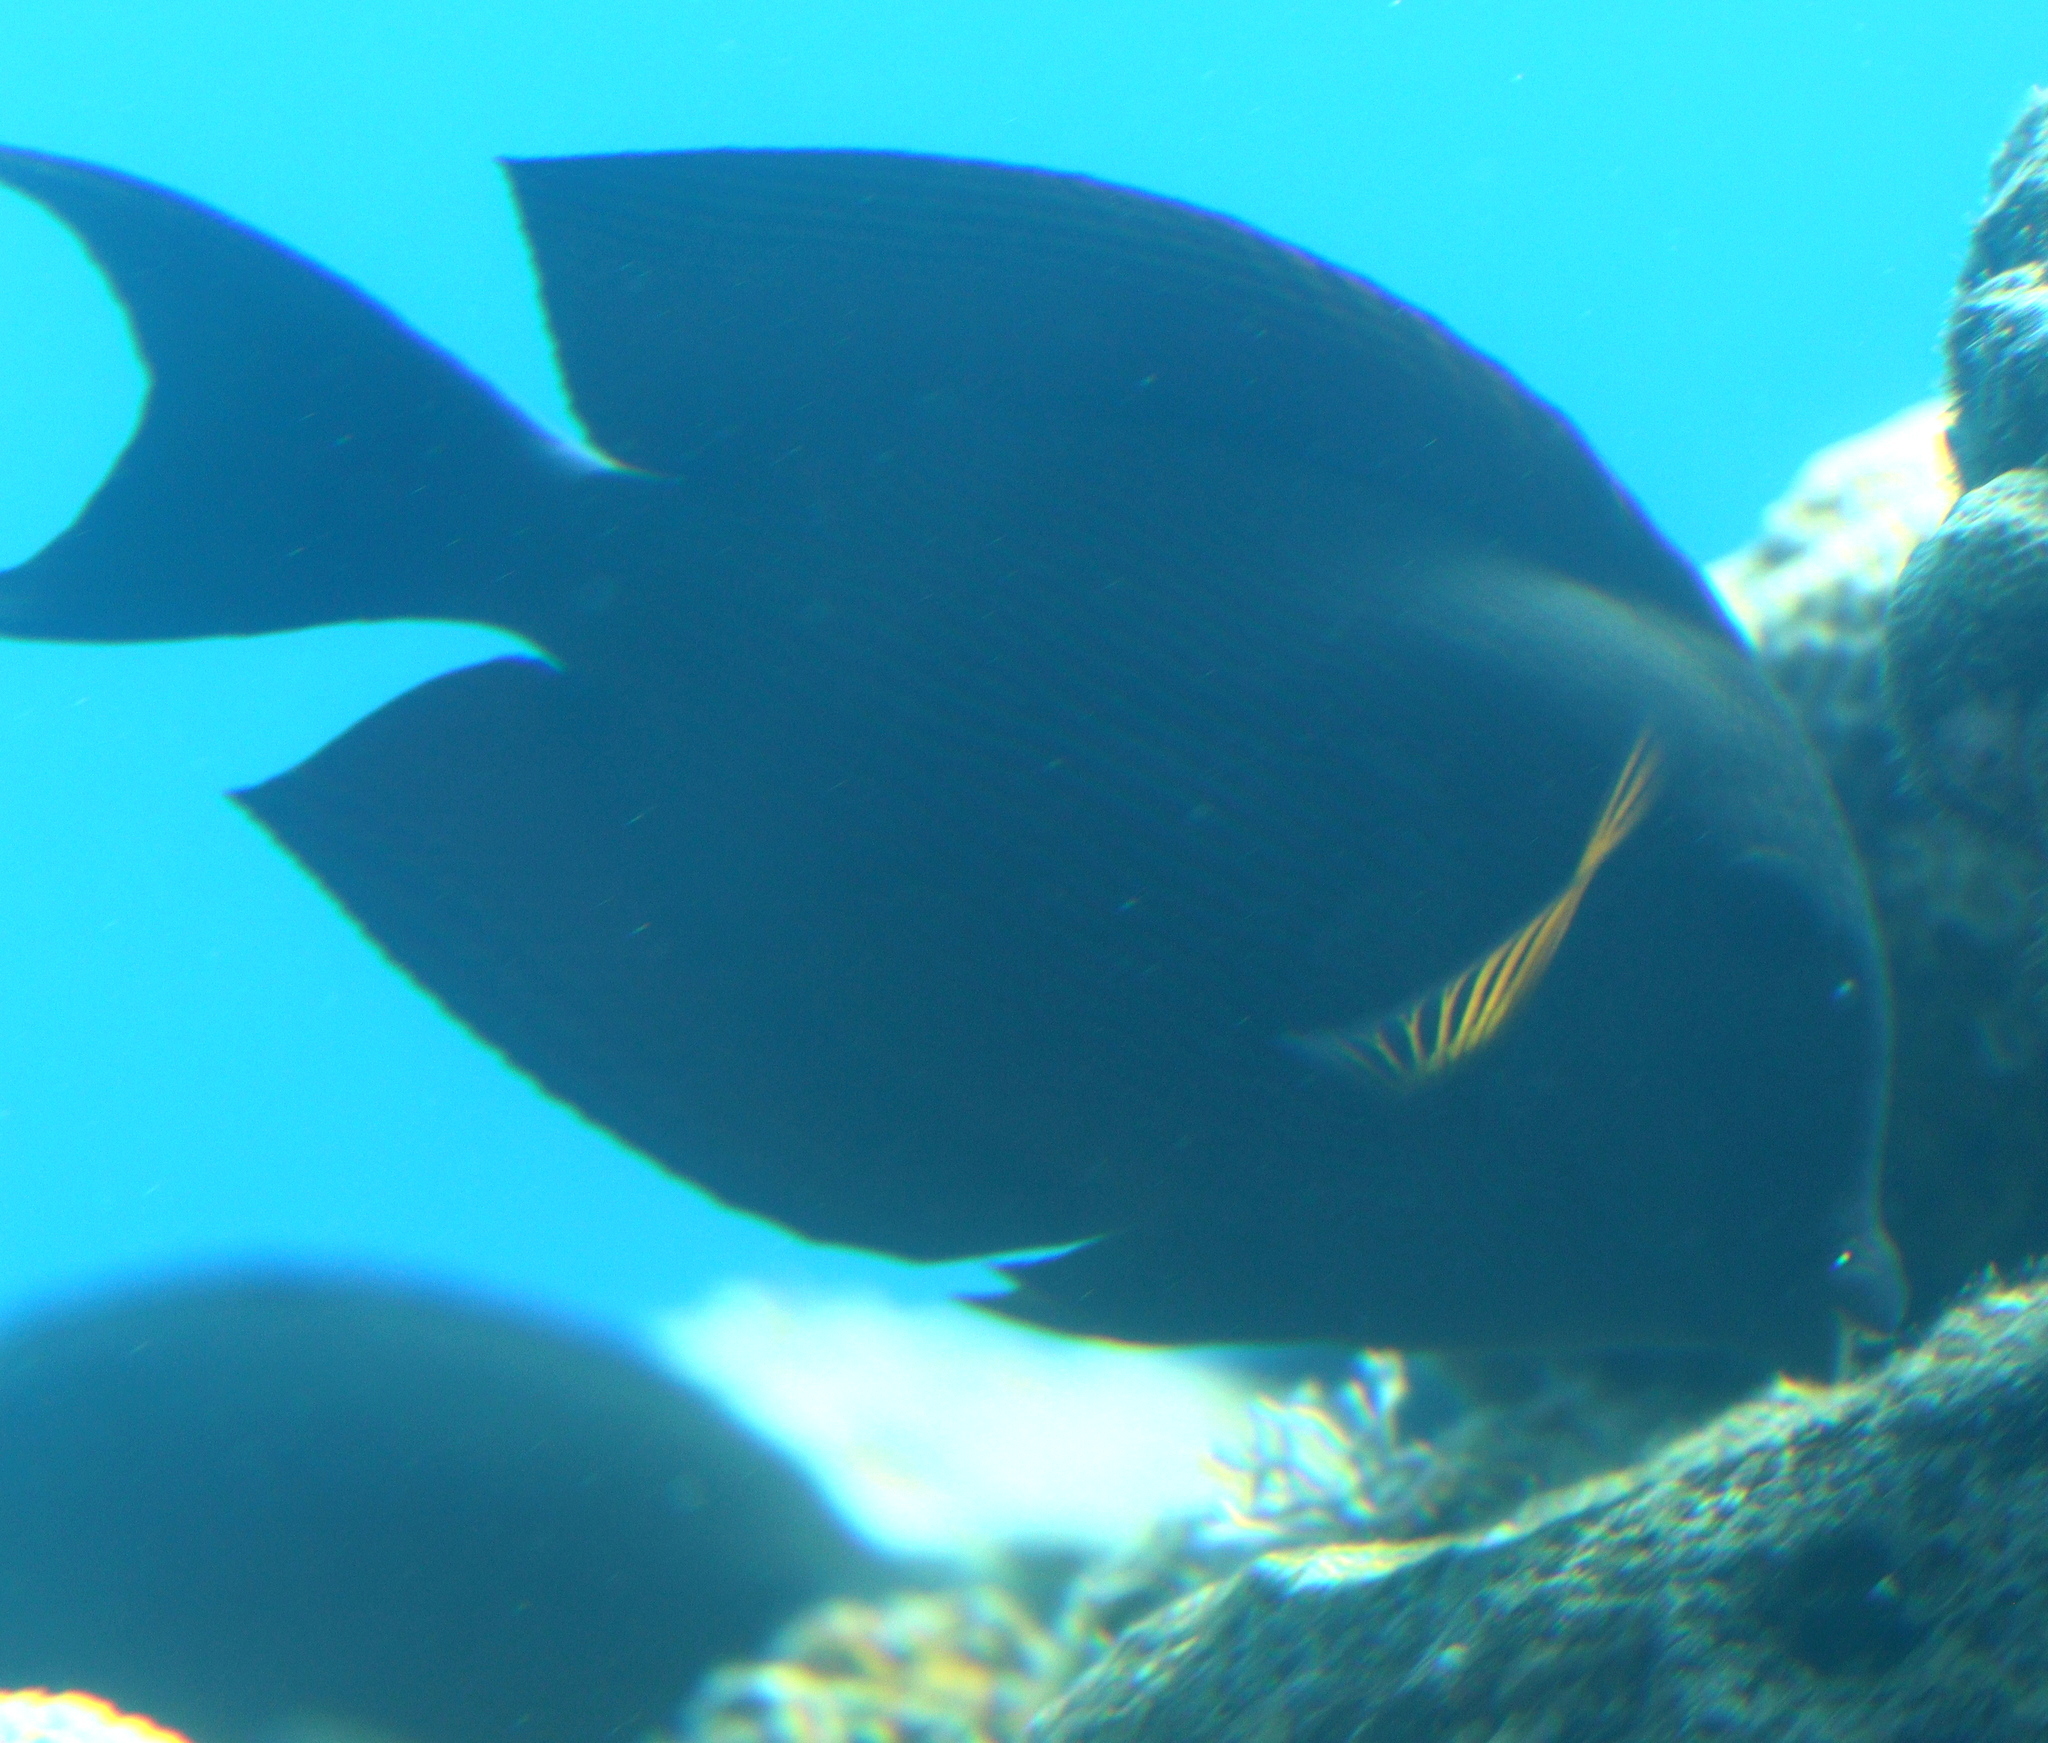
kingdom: Animalia
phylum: Chordata
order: Perciformes
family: Acanthuridae
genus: Ctenochaetus
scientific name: Ctenochaetus striatus
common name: Bristle-toothed surgeonfish
